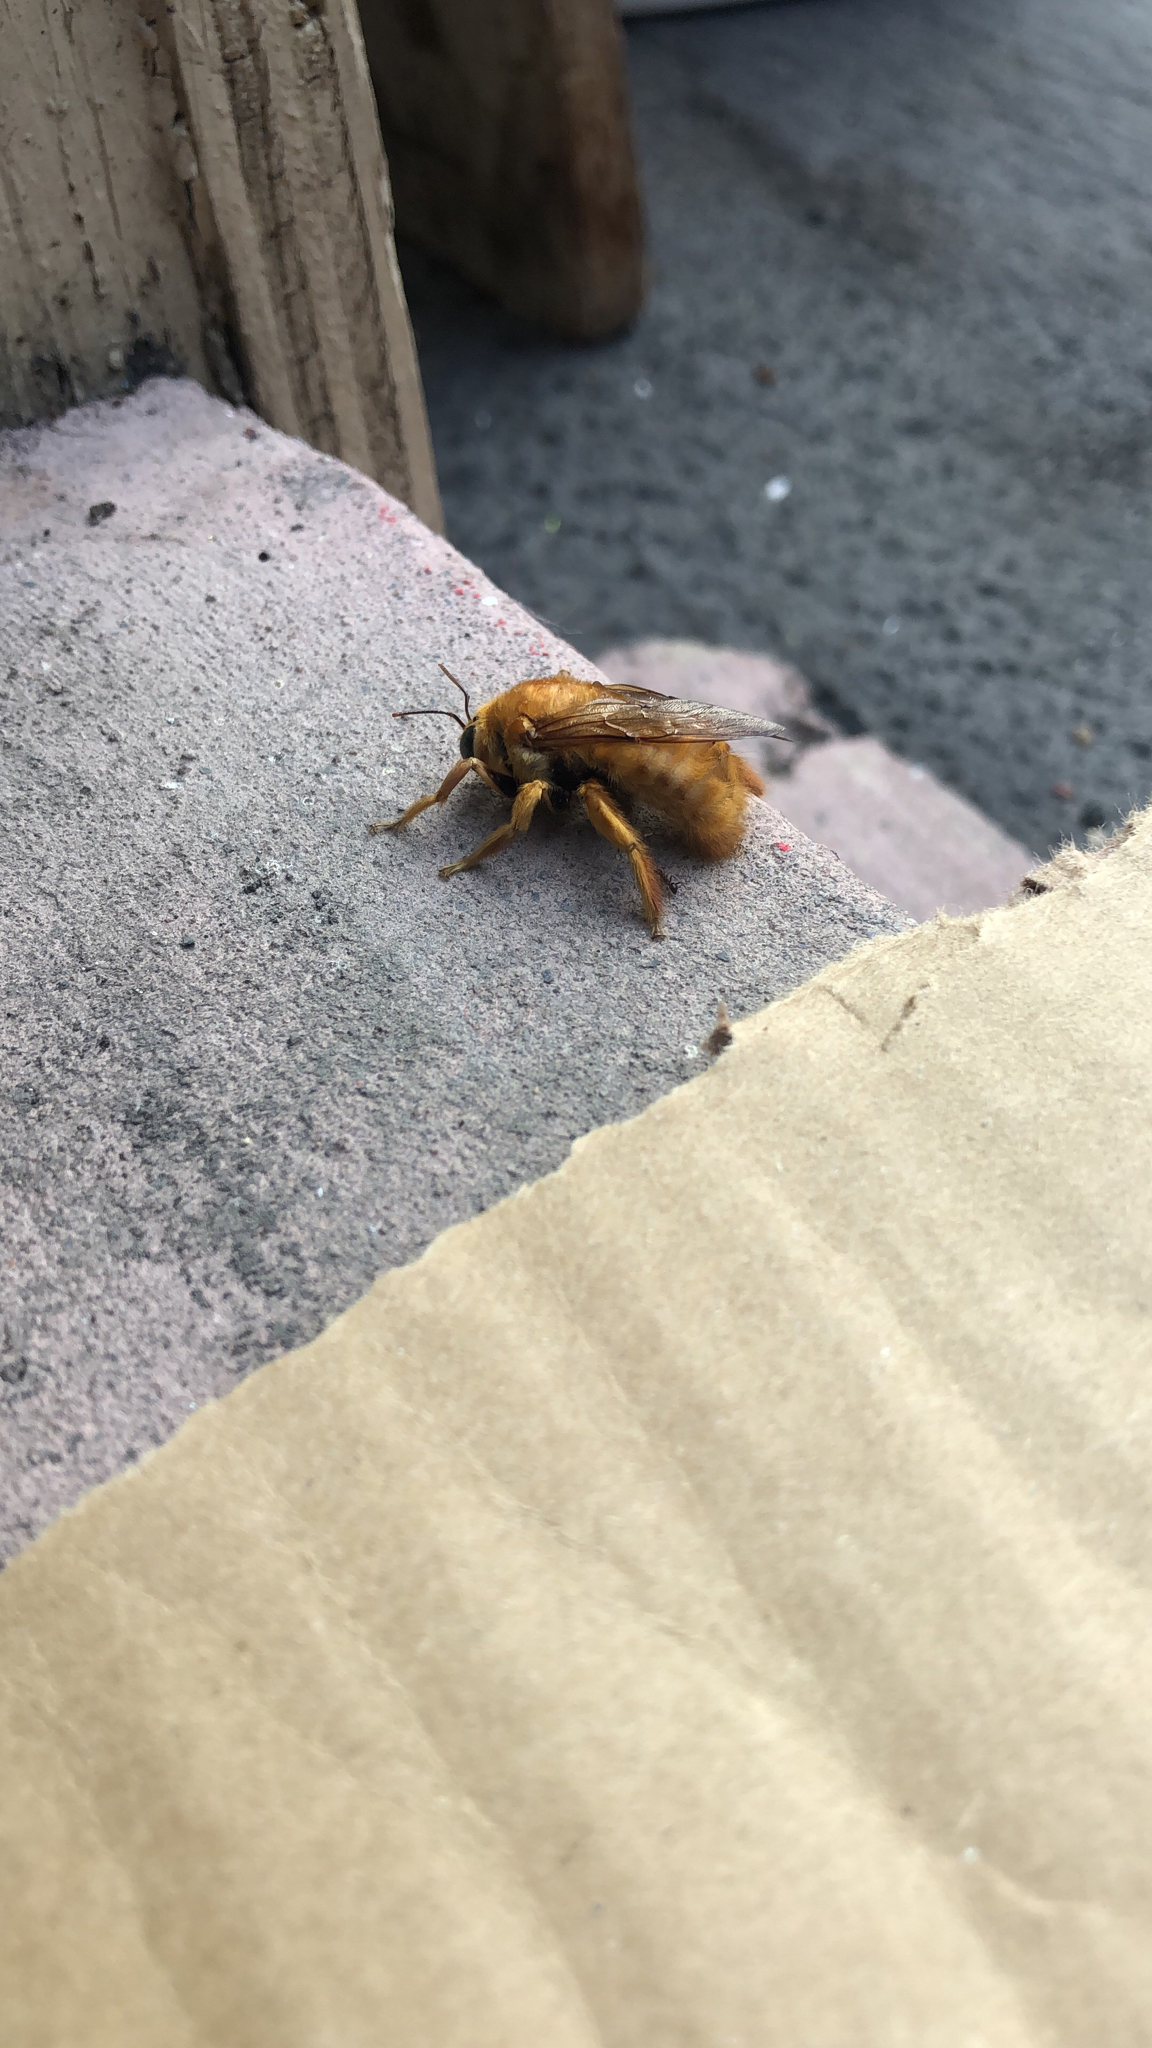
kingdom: Animalia
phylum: Arthropoda
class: Insecta
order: Hymenoptera
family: Apidae
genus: Xylocopa
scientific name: Xylocopa sonorina
